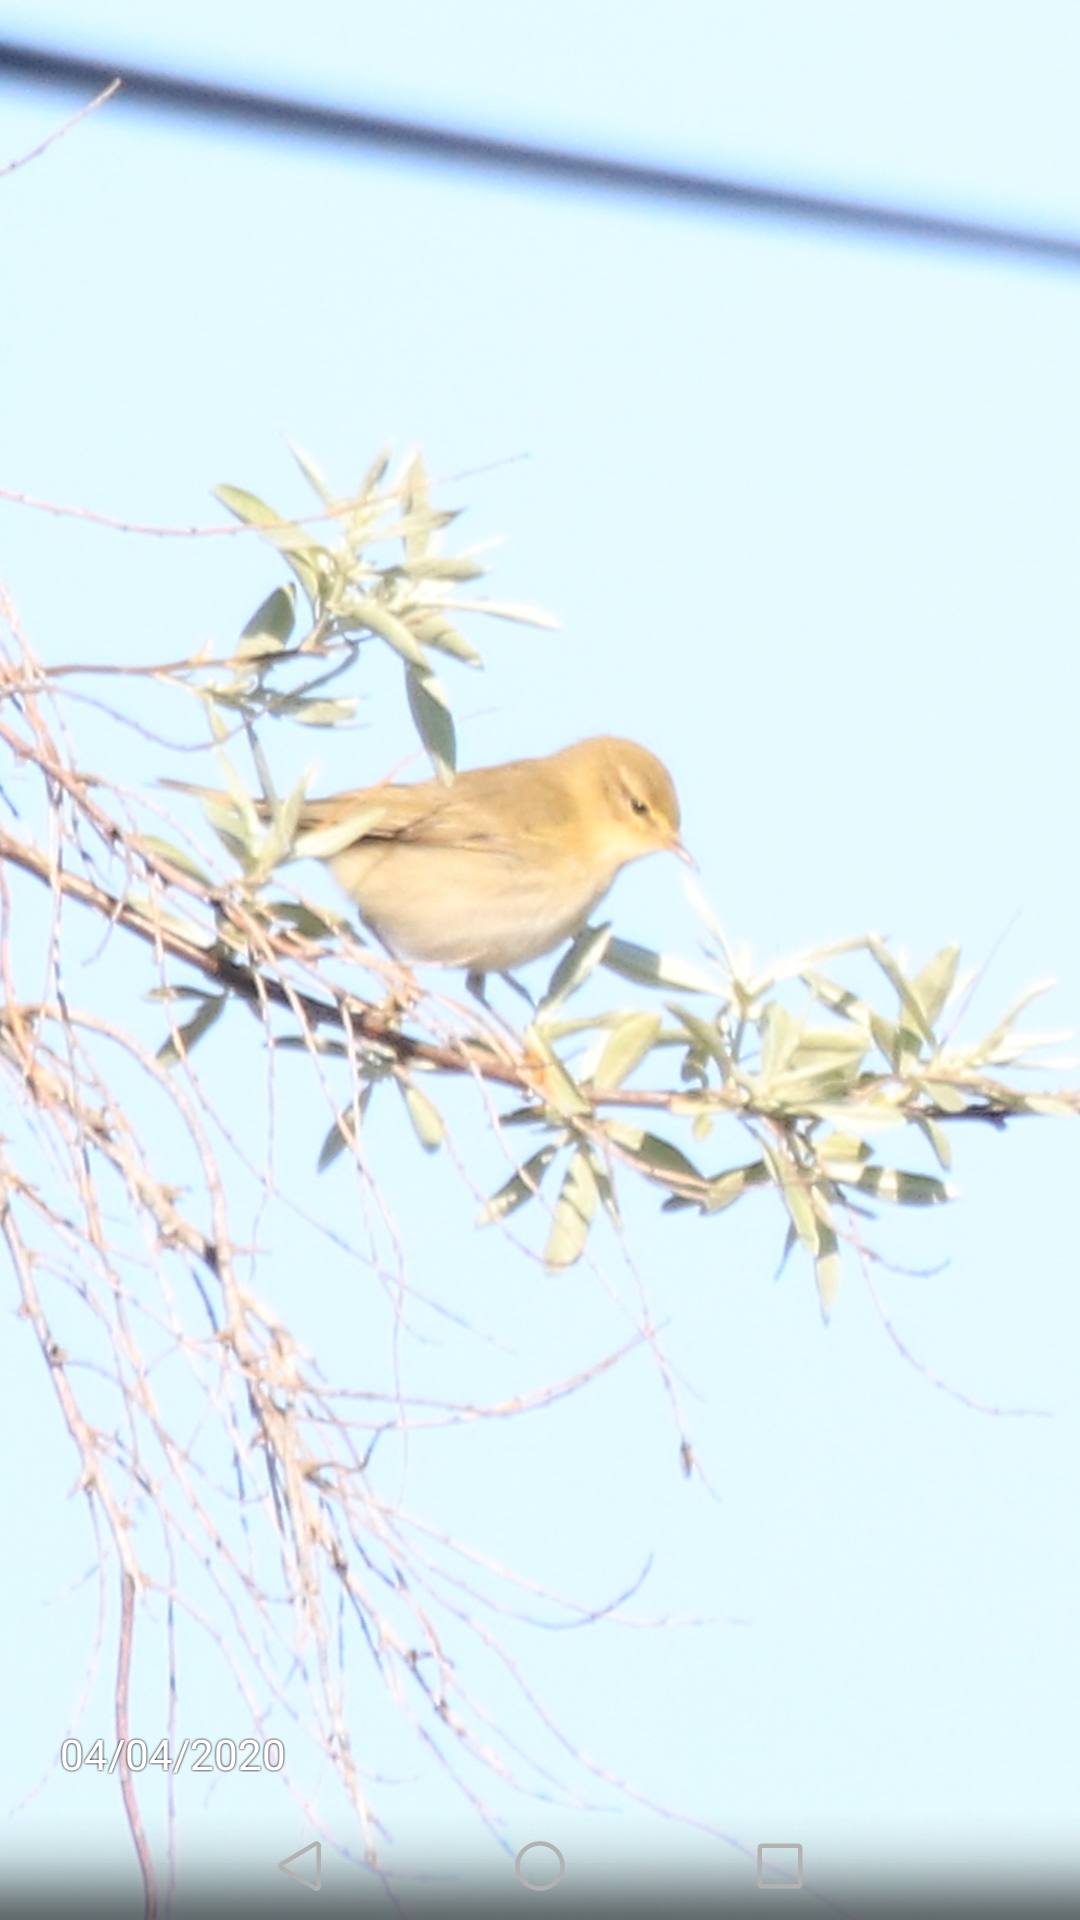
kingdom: Animalia
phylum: Chordata
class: Aves
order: Passeriformes
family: Phylloscopidae
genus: Phylloscopus
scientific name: Phylloscopus trochilus
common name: Willow warbler
